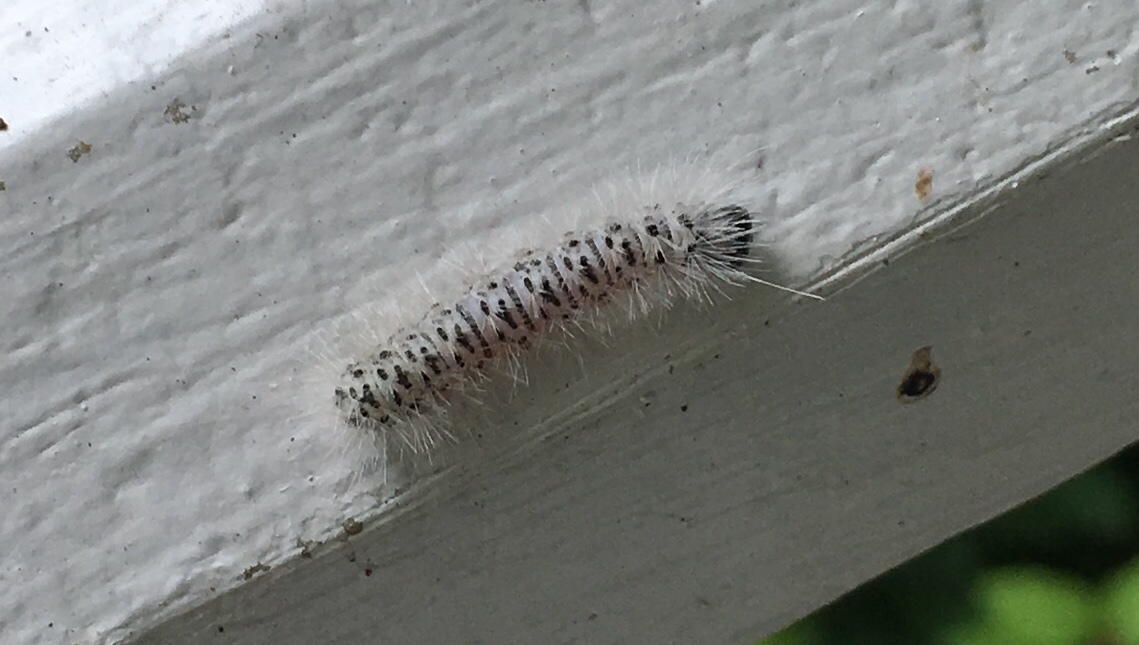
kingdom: Animalia
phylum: Arthropoda
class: Insecta
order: Lepidoptera
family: Erebidae
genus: Lophocampa
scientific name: Lophocampa caryae
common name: Hickory tussock moth
